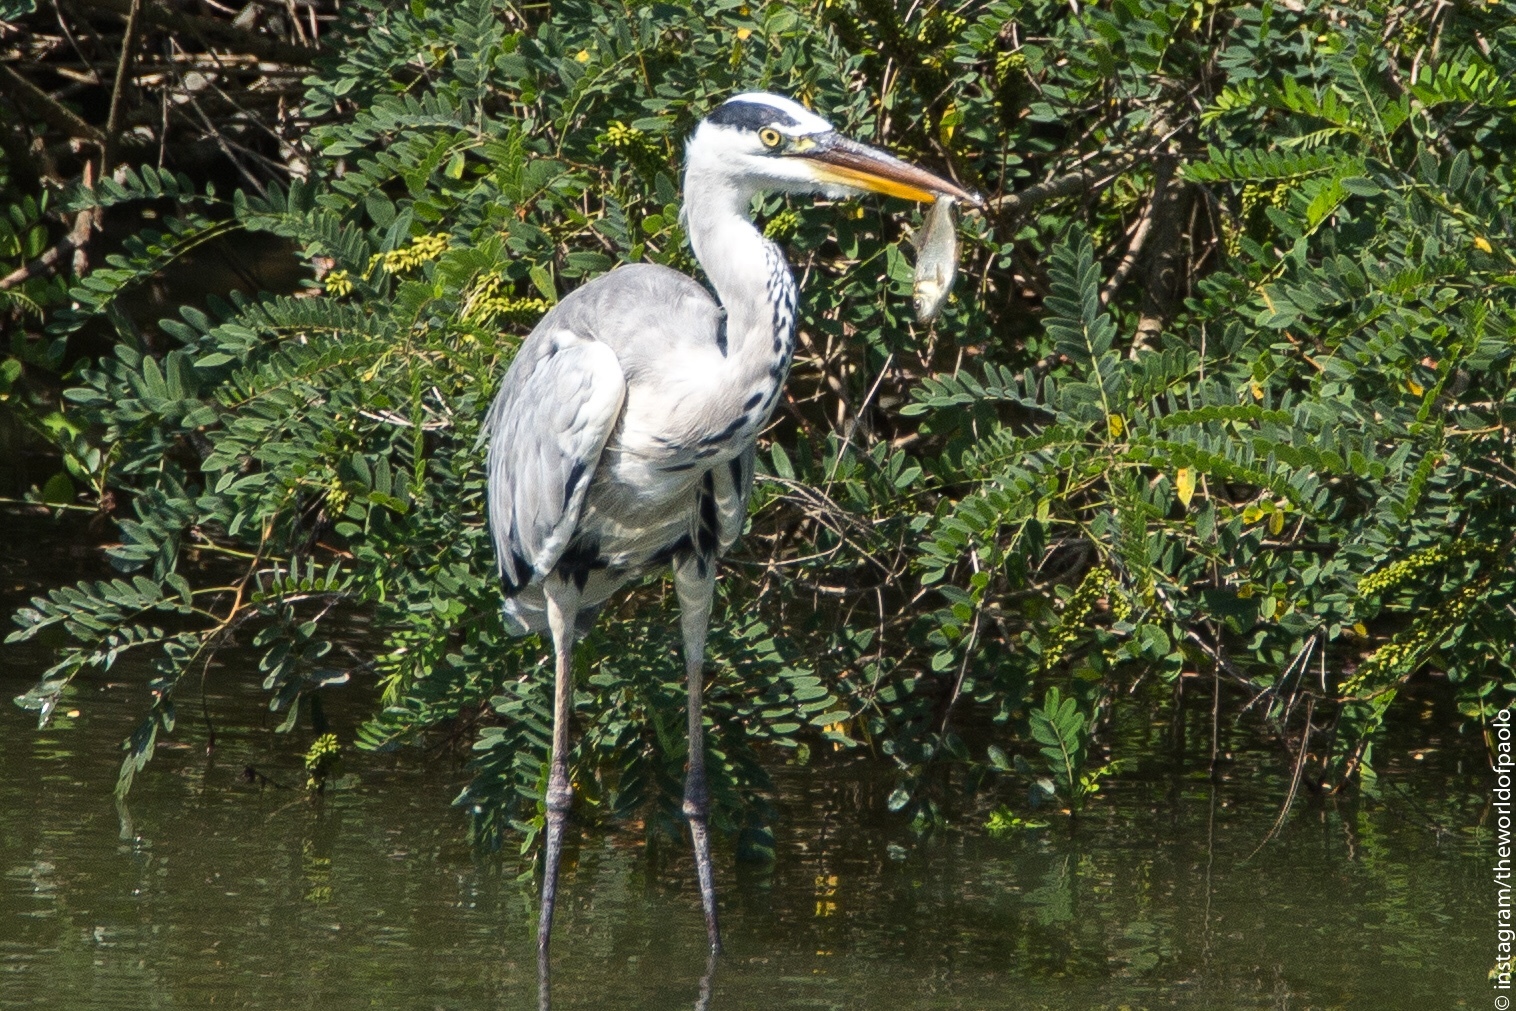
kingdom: Animalia
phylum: Chordata
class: Aves
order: Pelecaniformes
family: Ardeidae
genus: Ardea
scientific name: Ardea cinerea
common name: Grey heron
